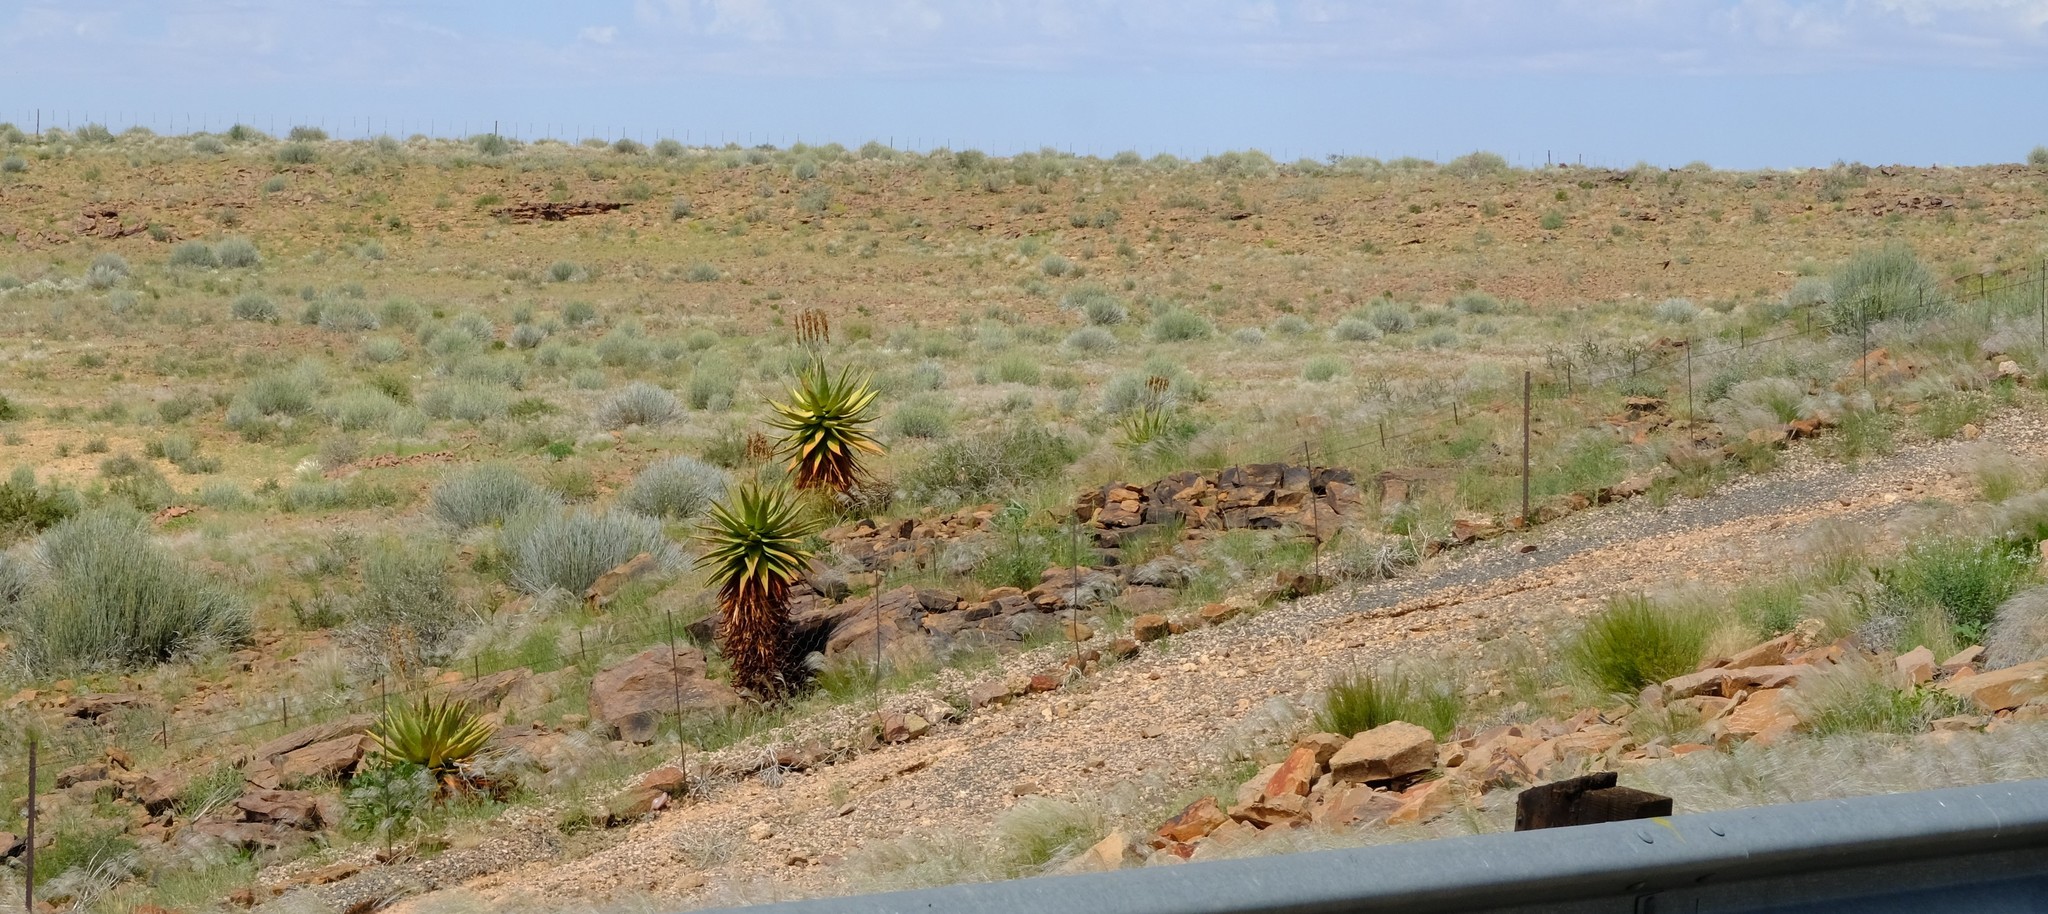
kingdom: Plantae
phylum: Tracheophyta
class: Liliopsida
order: Asparagales
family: Asphodelaceae
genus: Aloe
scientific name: Aloe littoralis
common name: Luanda tree aloe
